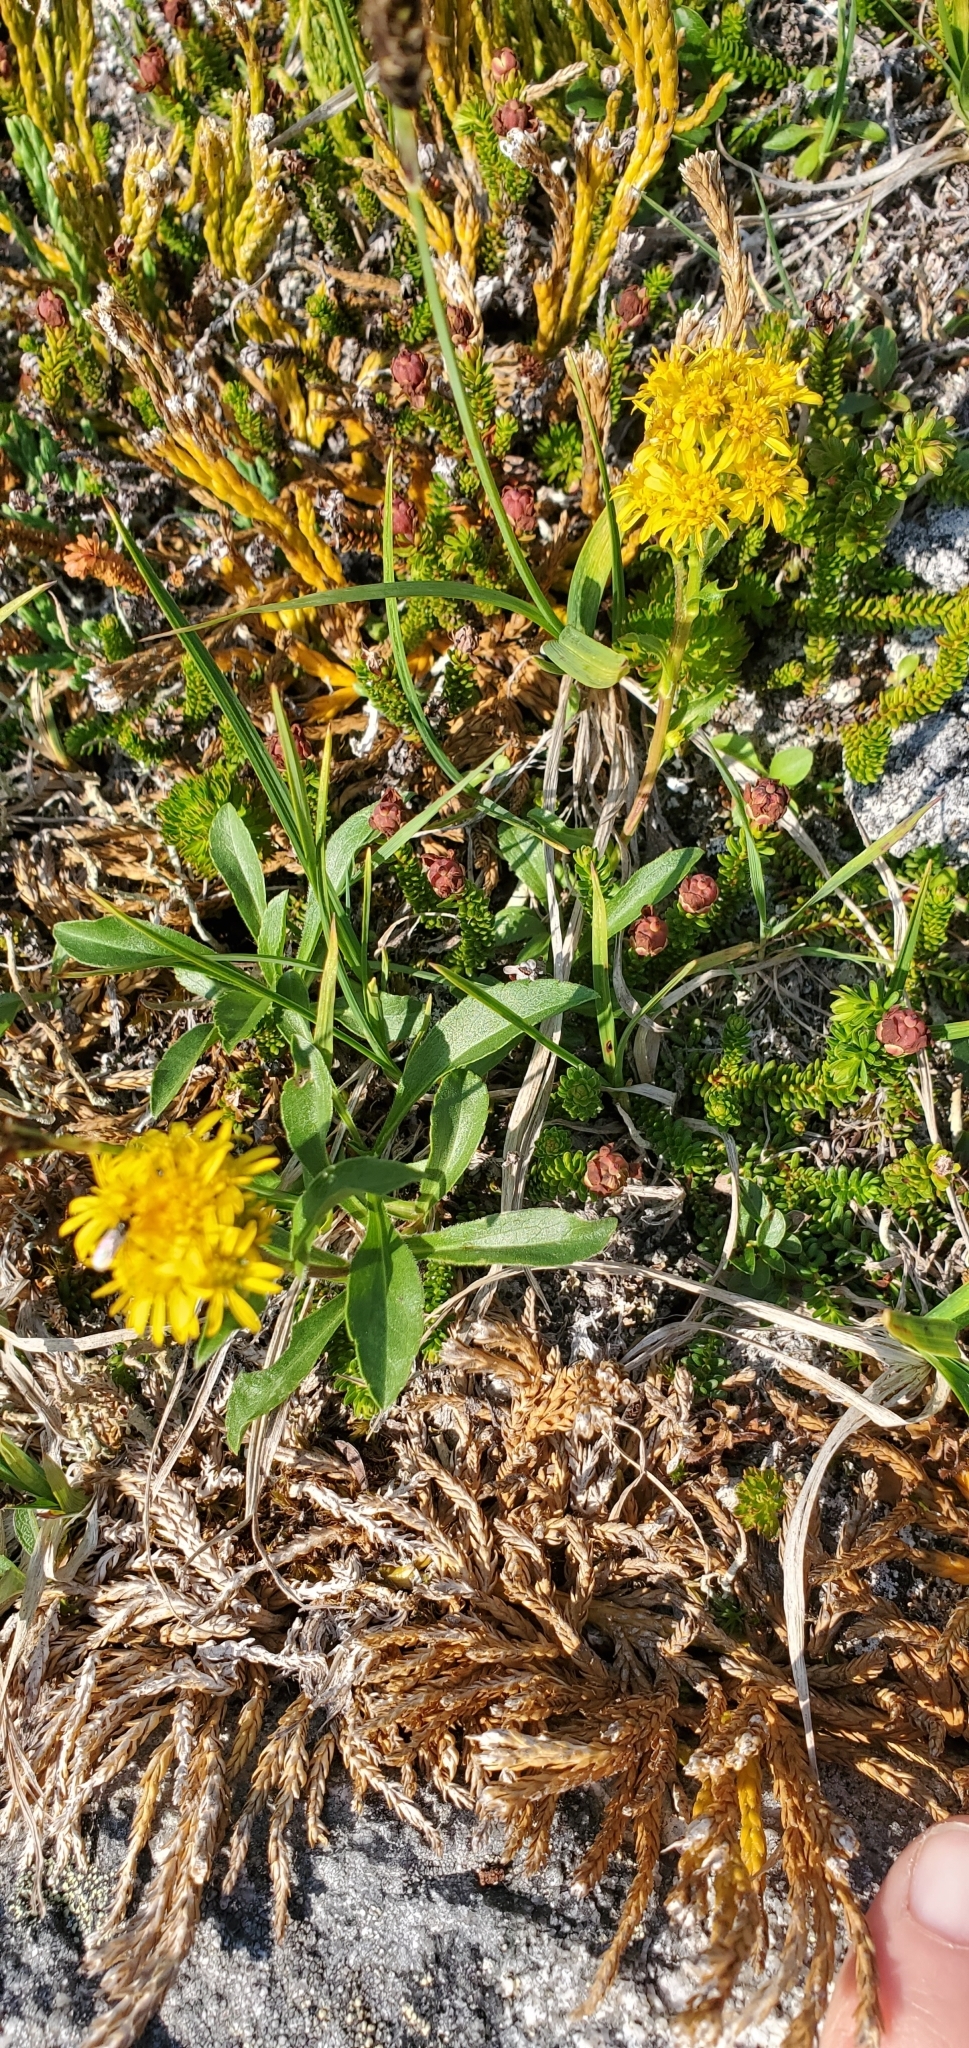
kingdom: Plantae
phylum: Tracheophyta
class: Magnoliopsida
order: Asterales
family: Asteraceae
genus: Solidago
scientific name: Solidago multiradiata
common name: Northern goldenrod
